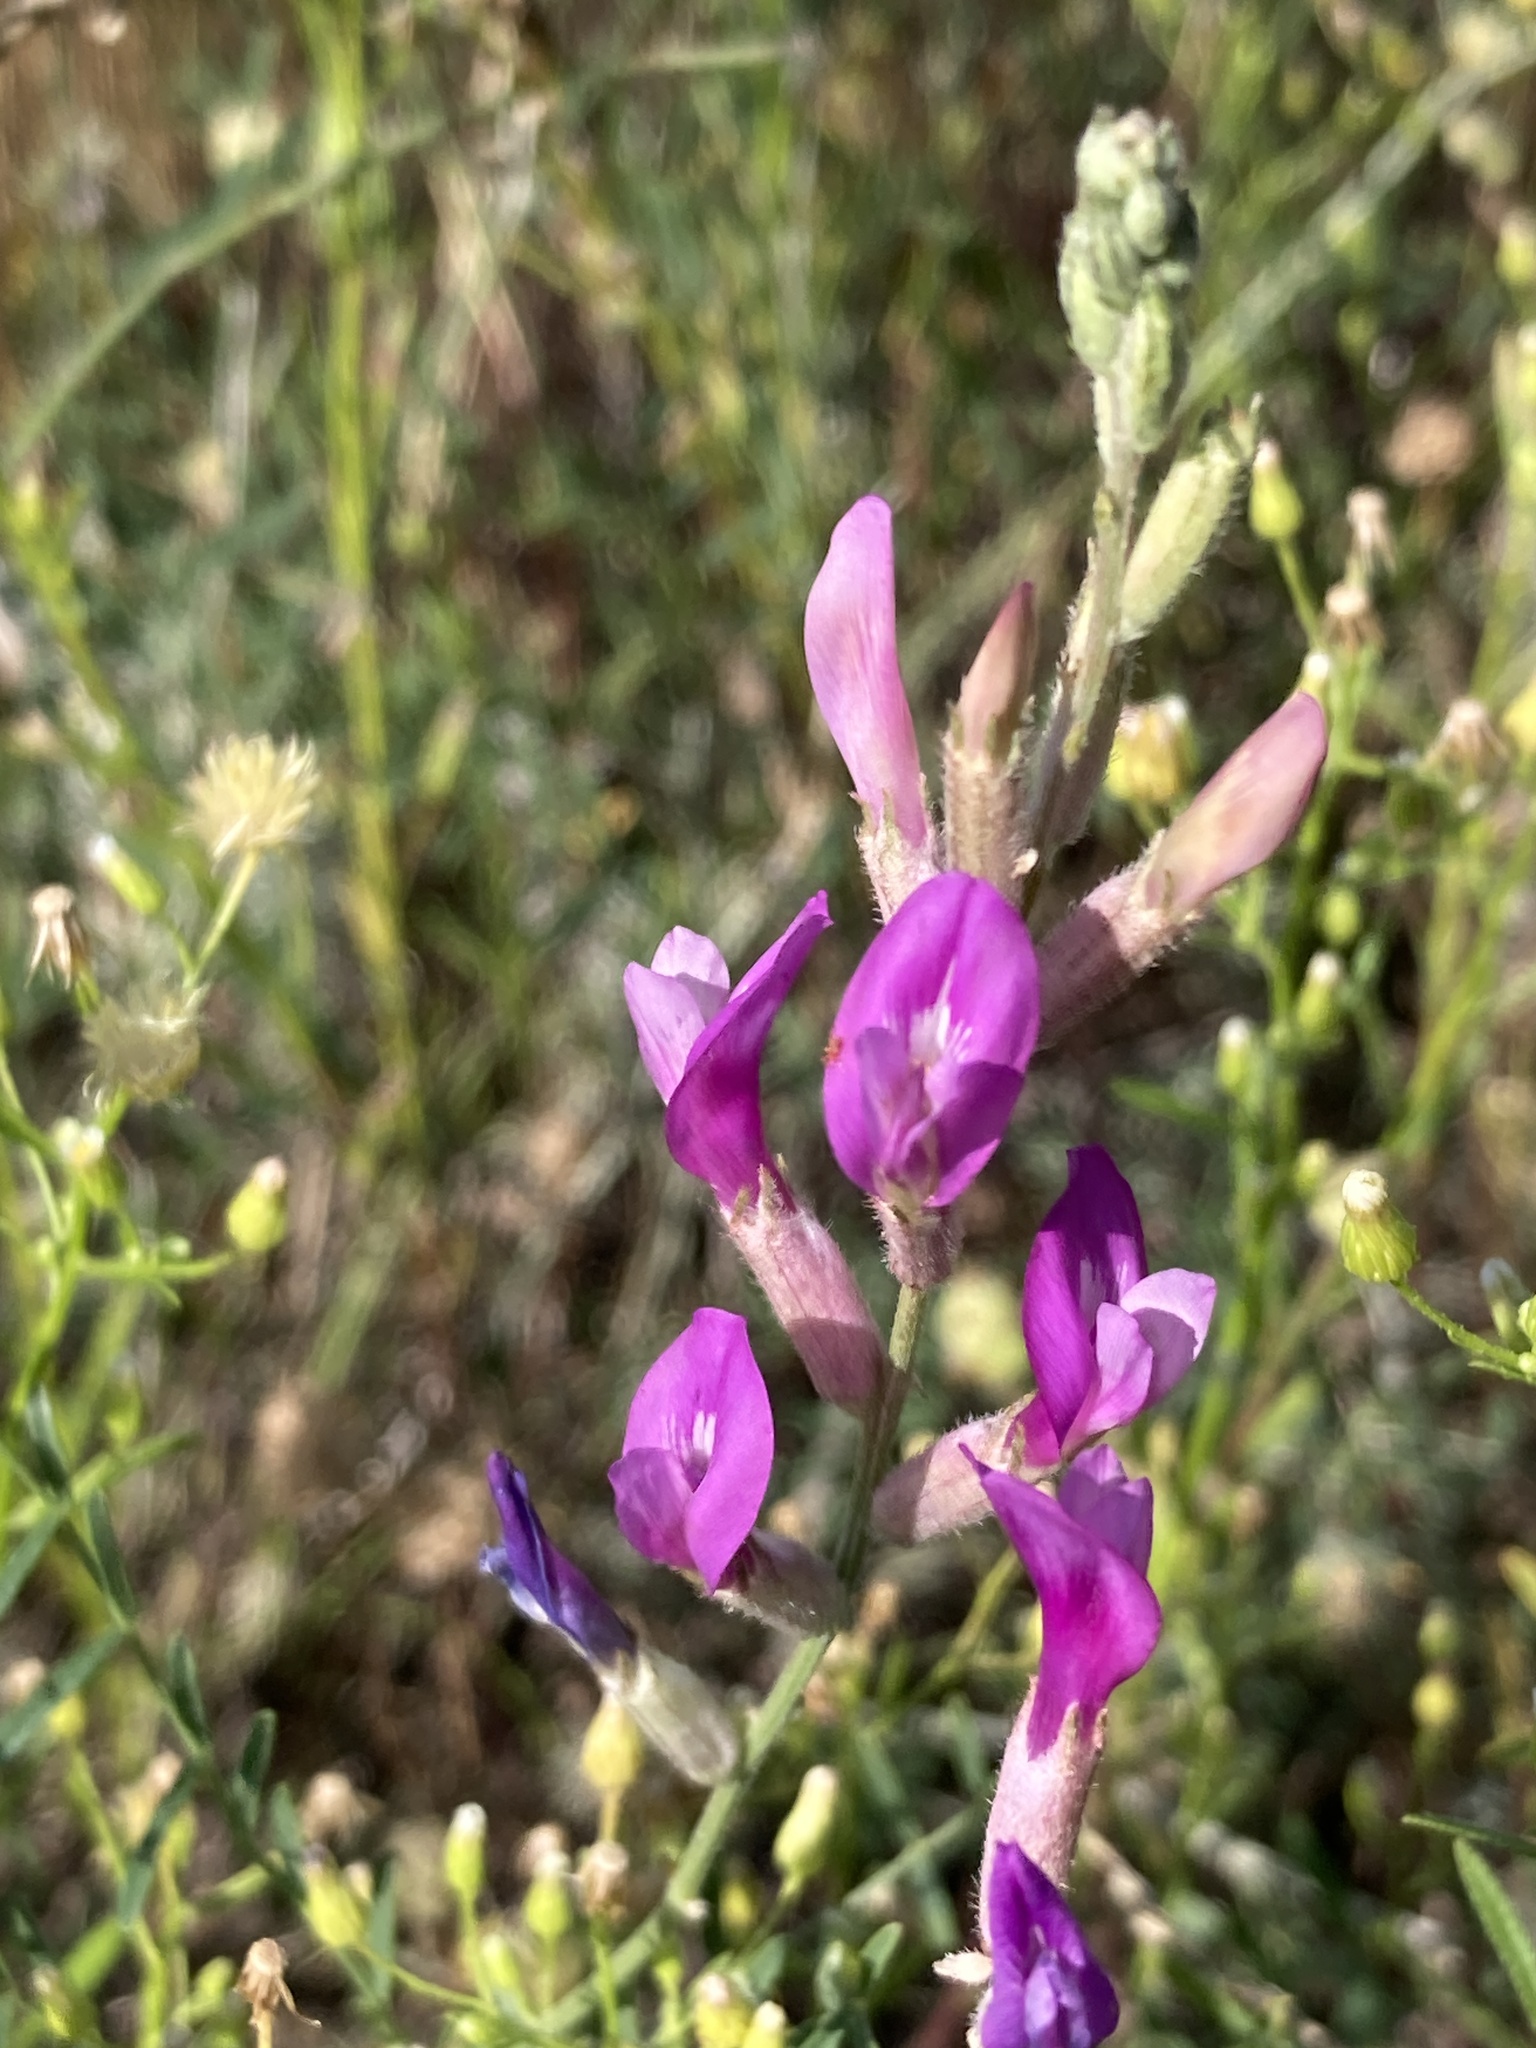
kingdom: Plantae
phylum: Tracheophyta
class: Magnoliopsida
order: Fabales
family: Fabaceae
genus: Astragalus
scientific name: Astragalus varius
